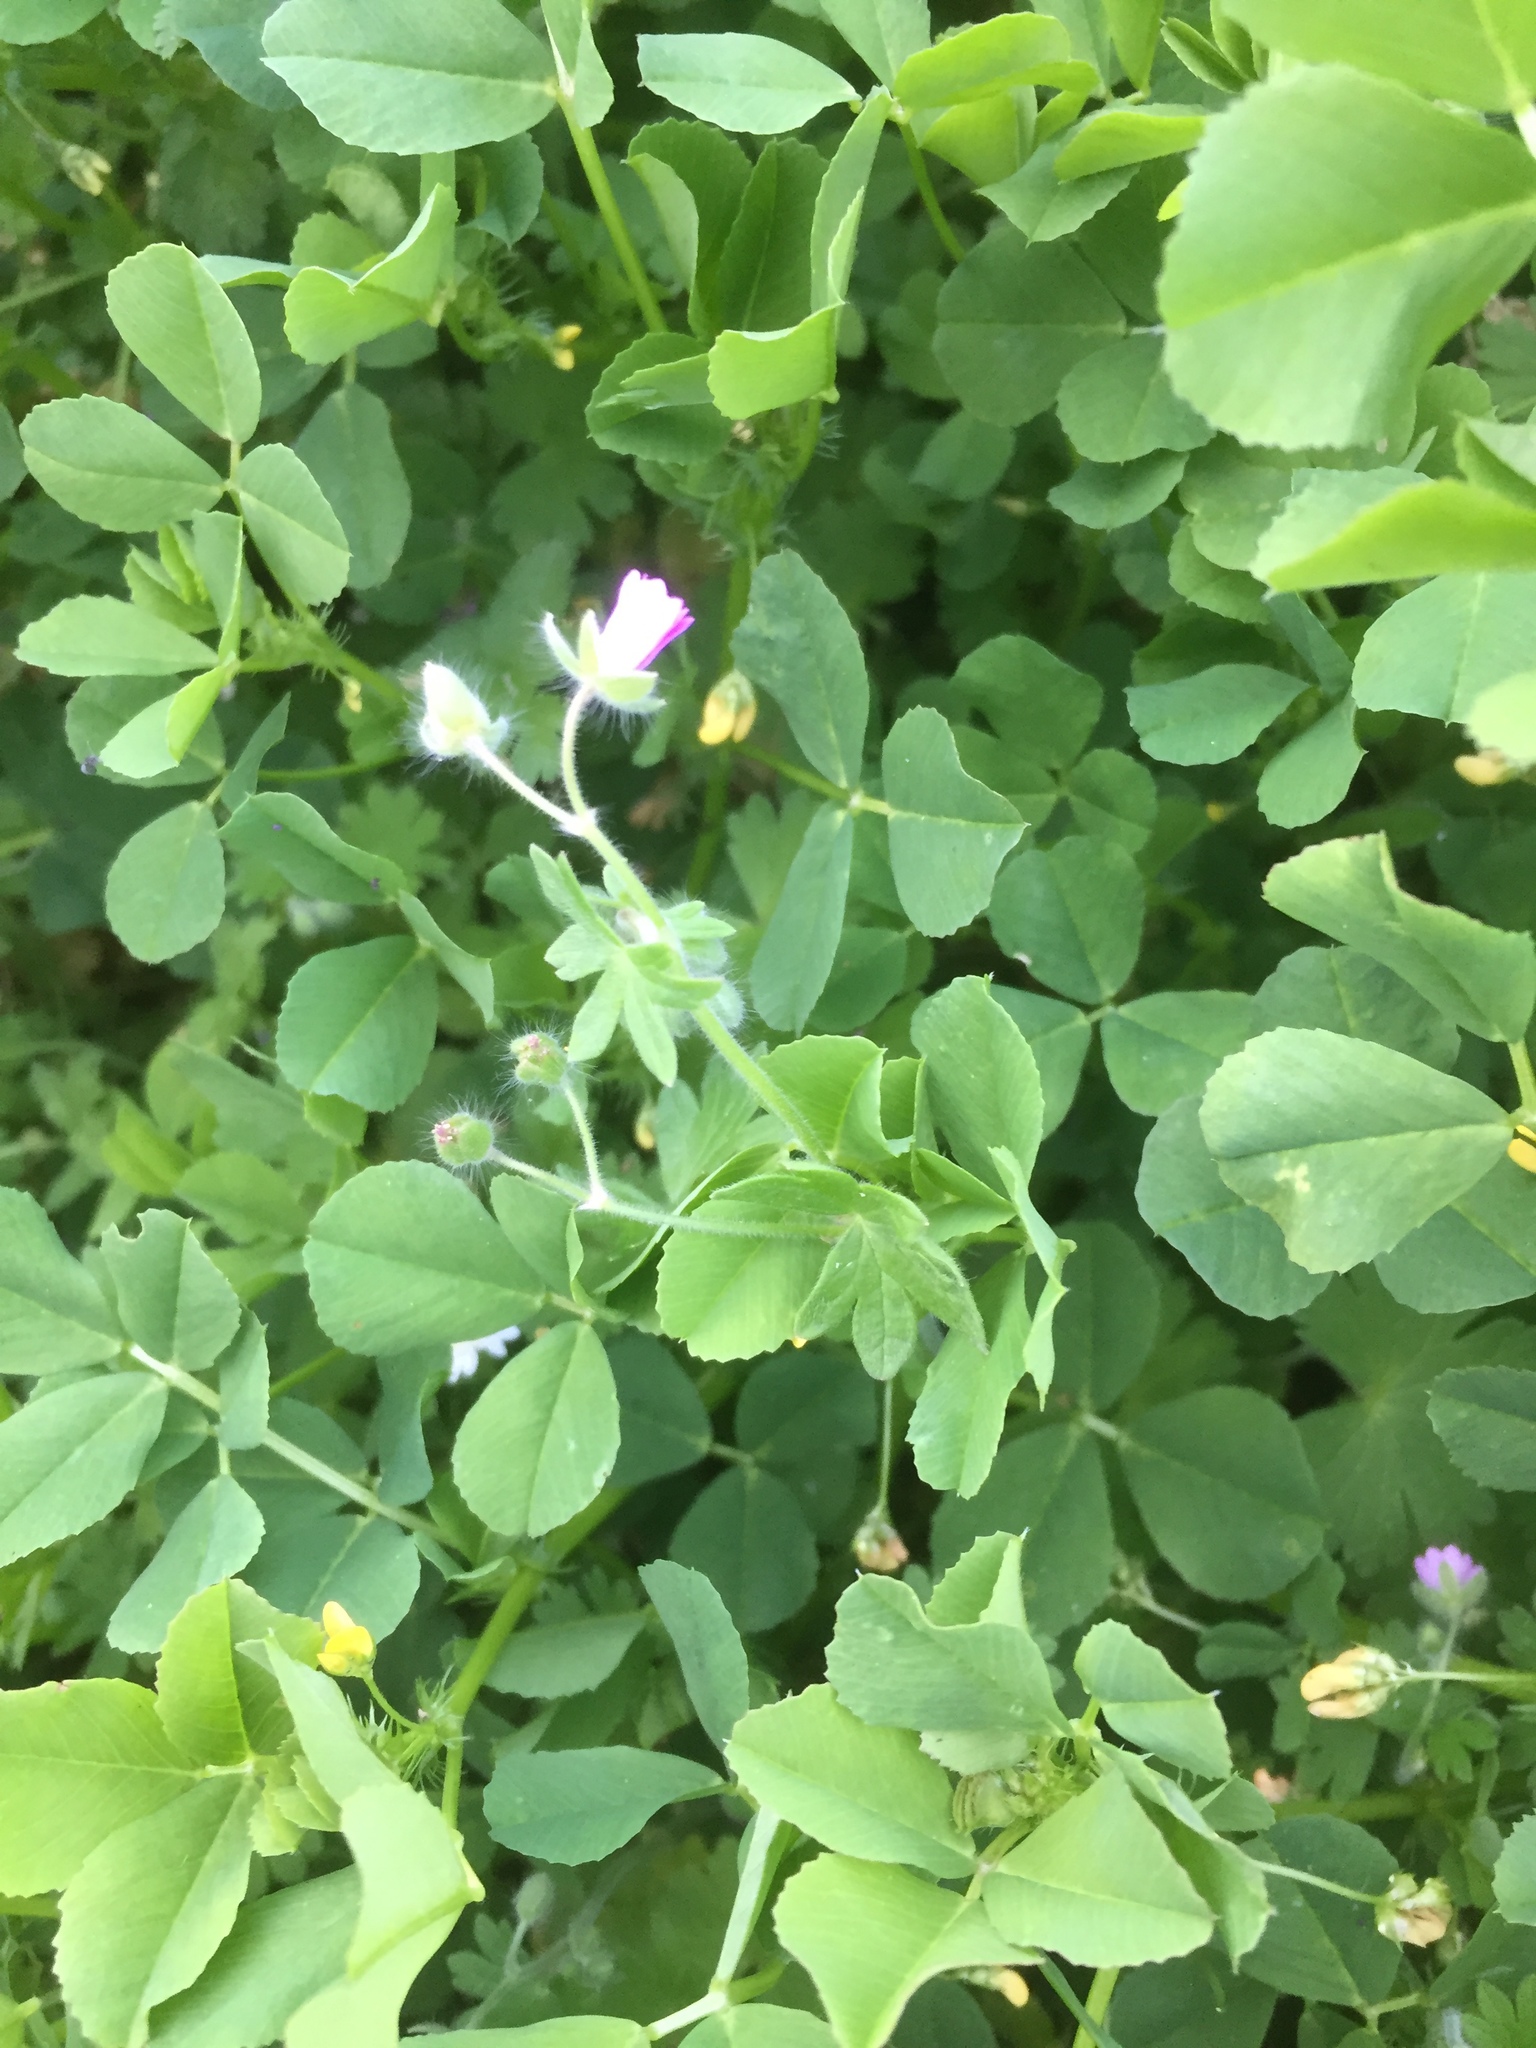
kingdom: Plantae
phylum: Tracheophyta
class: Magnoliopsida
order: Geraniales
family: Geraniaceae
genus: Geranium
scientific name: Geranium molle
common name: Dove's-foot crane's-bill
